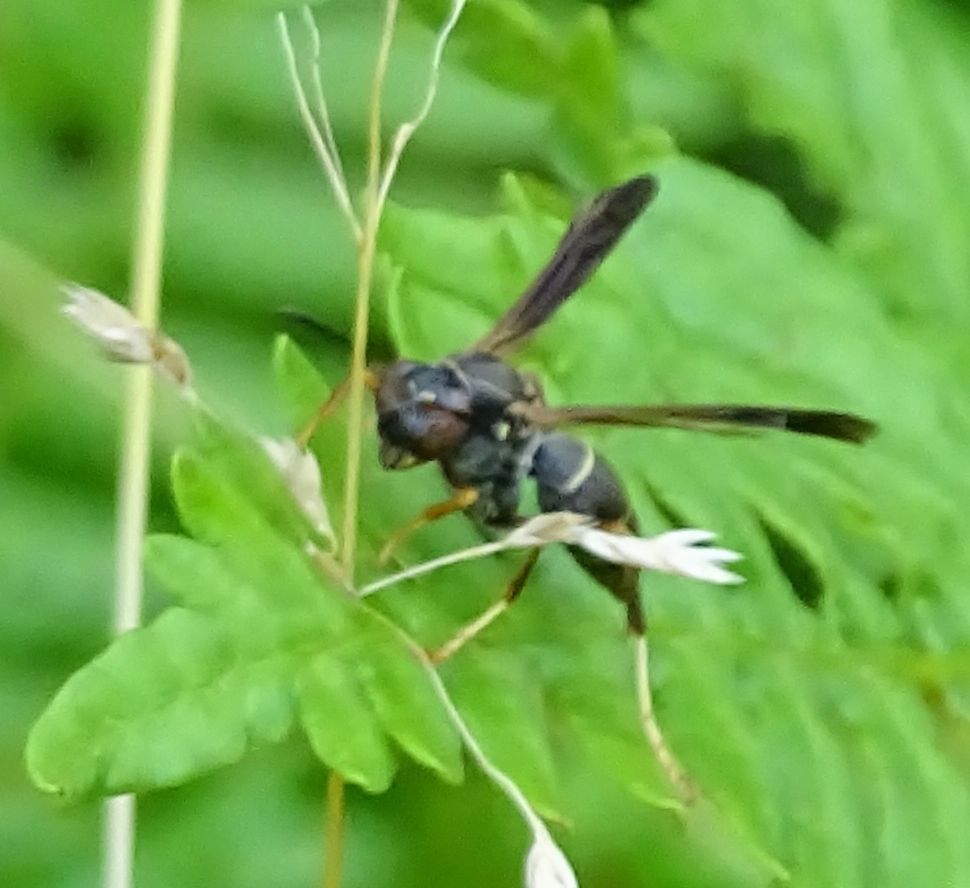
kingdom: Animalia
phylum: Arthropoda
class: Insecta
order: Hymenoptera
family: Eumenidae
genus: Polistes
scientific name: Polistes fuscatus
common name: Dark paper wasp
